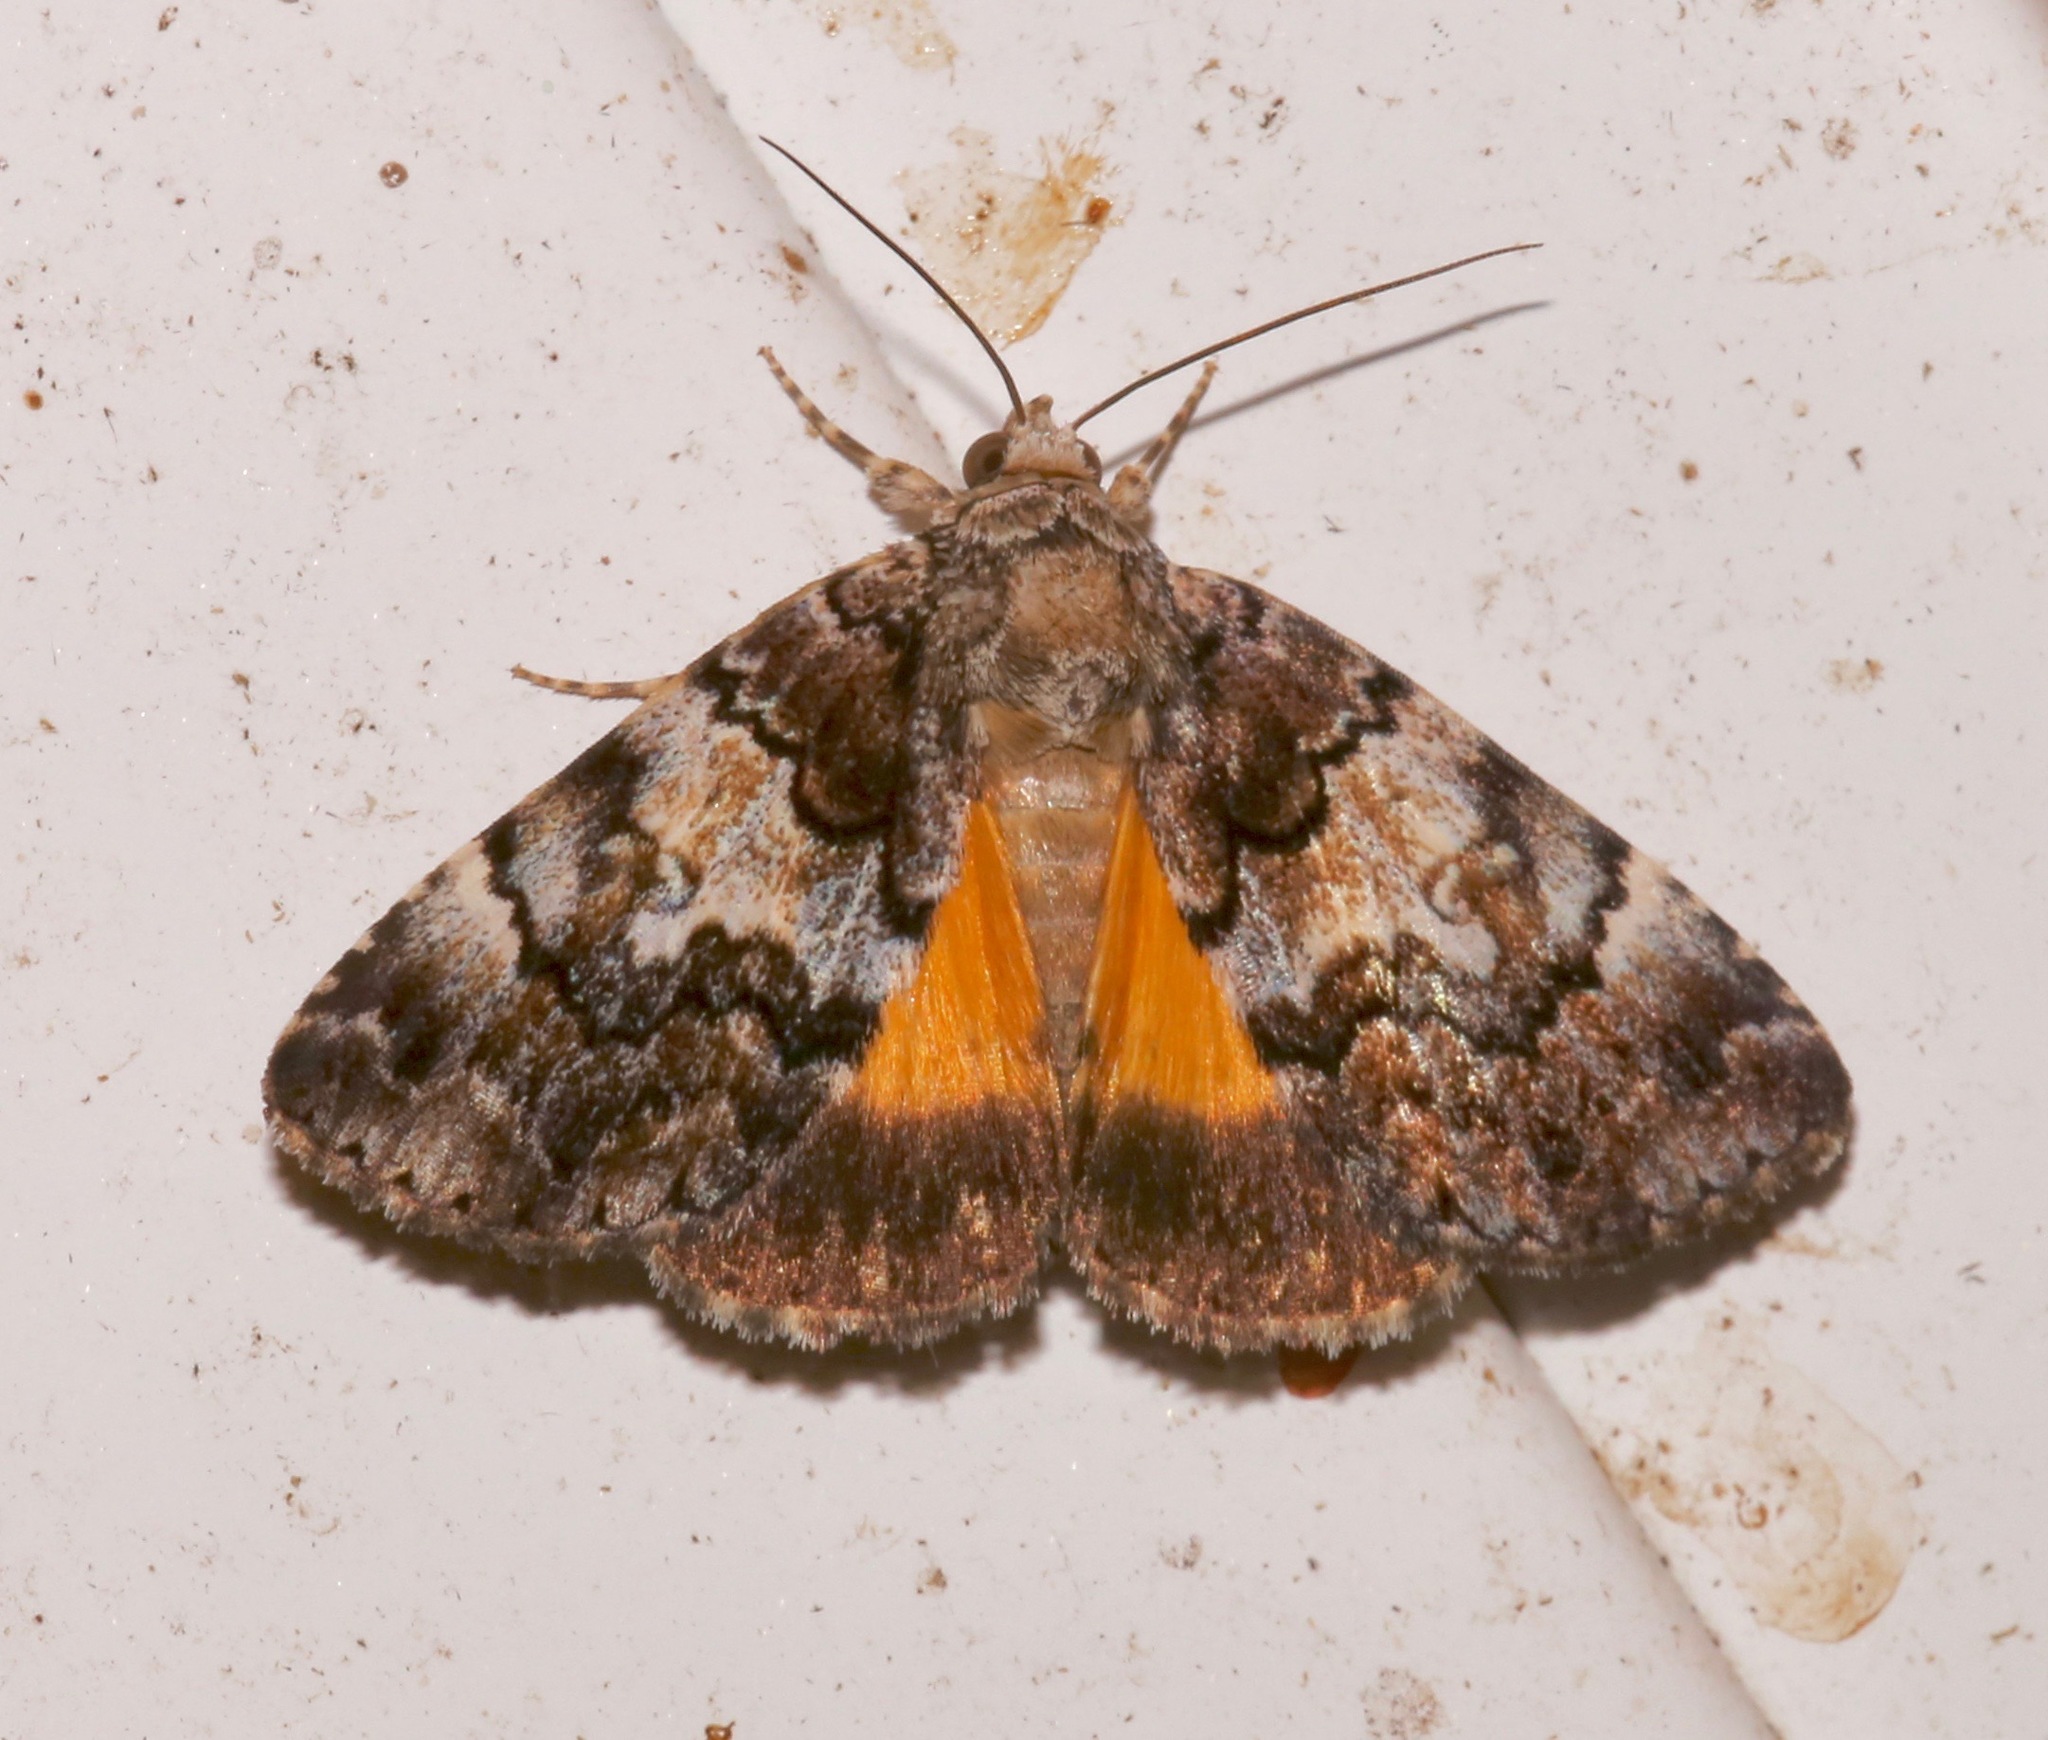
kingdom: Animalia
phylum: Arthropoda
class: Insecta
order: Lepidoptera
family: Erebidae
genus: Allotria
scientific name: Allotria elonympha
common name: False underwing
